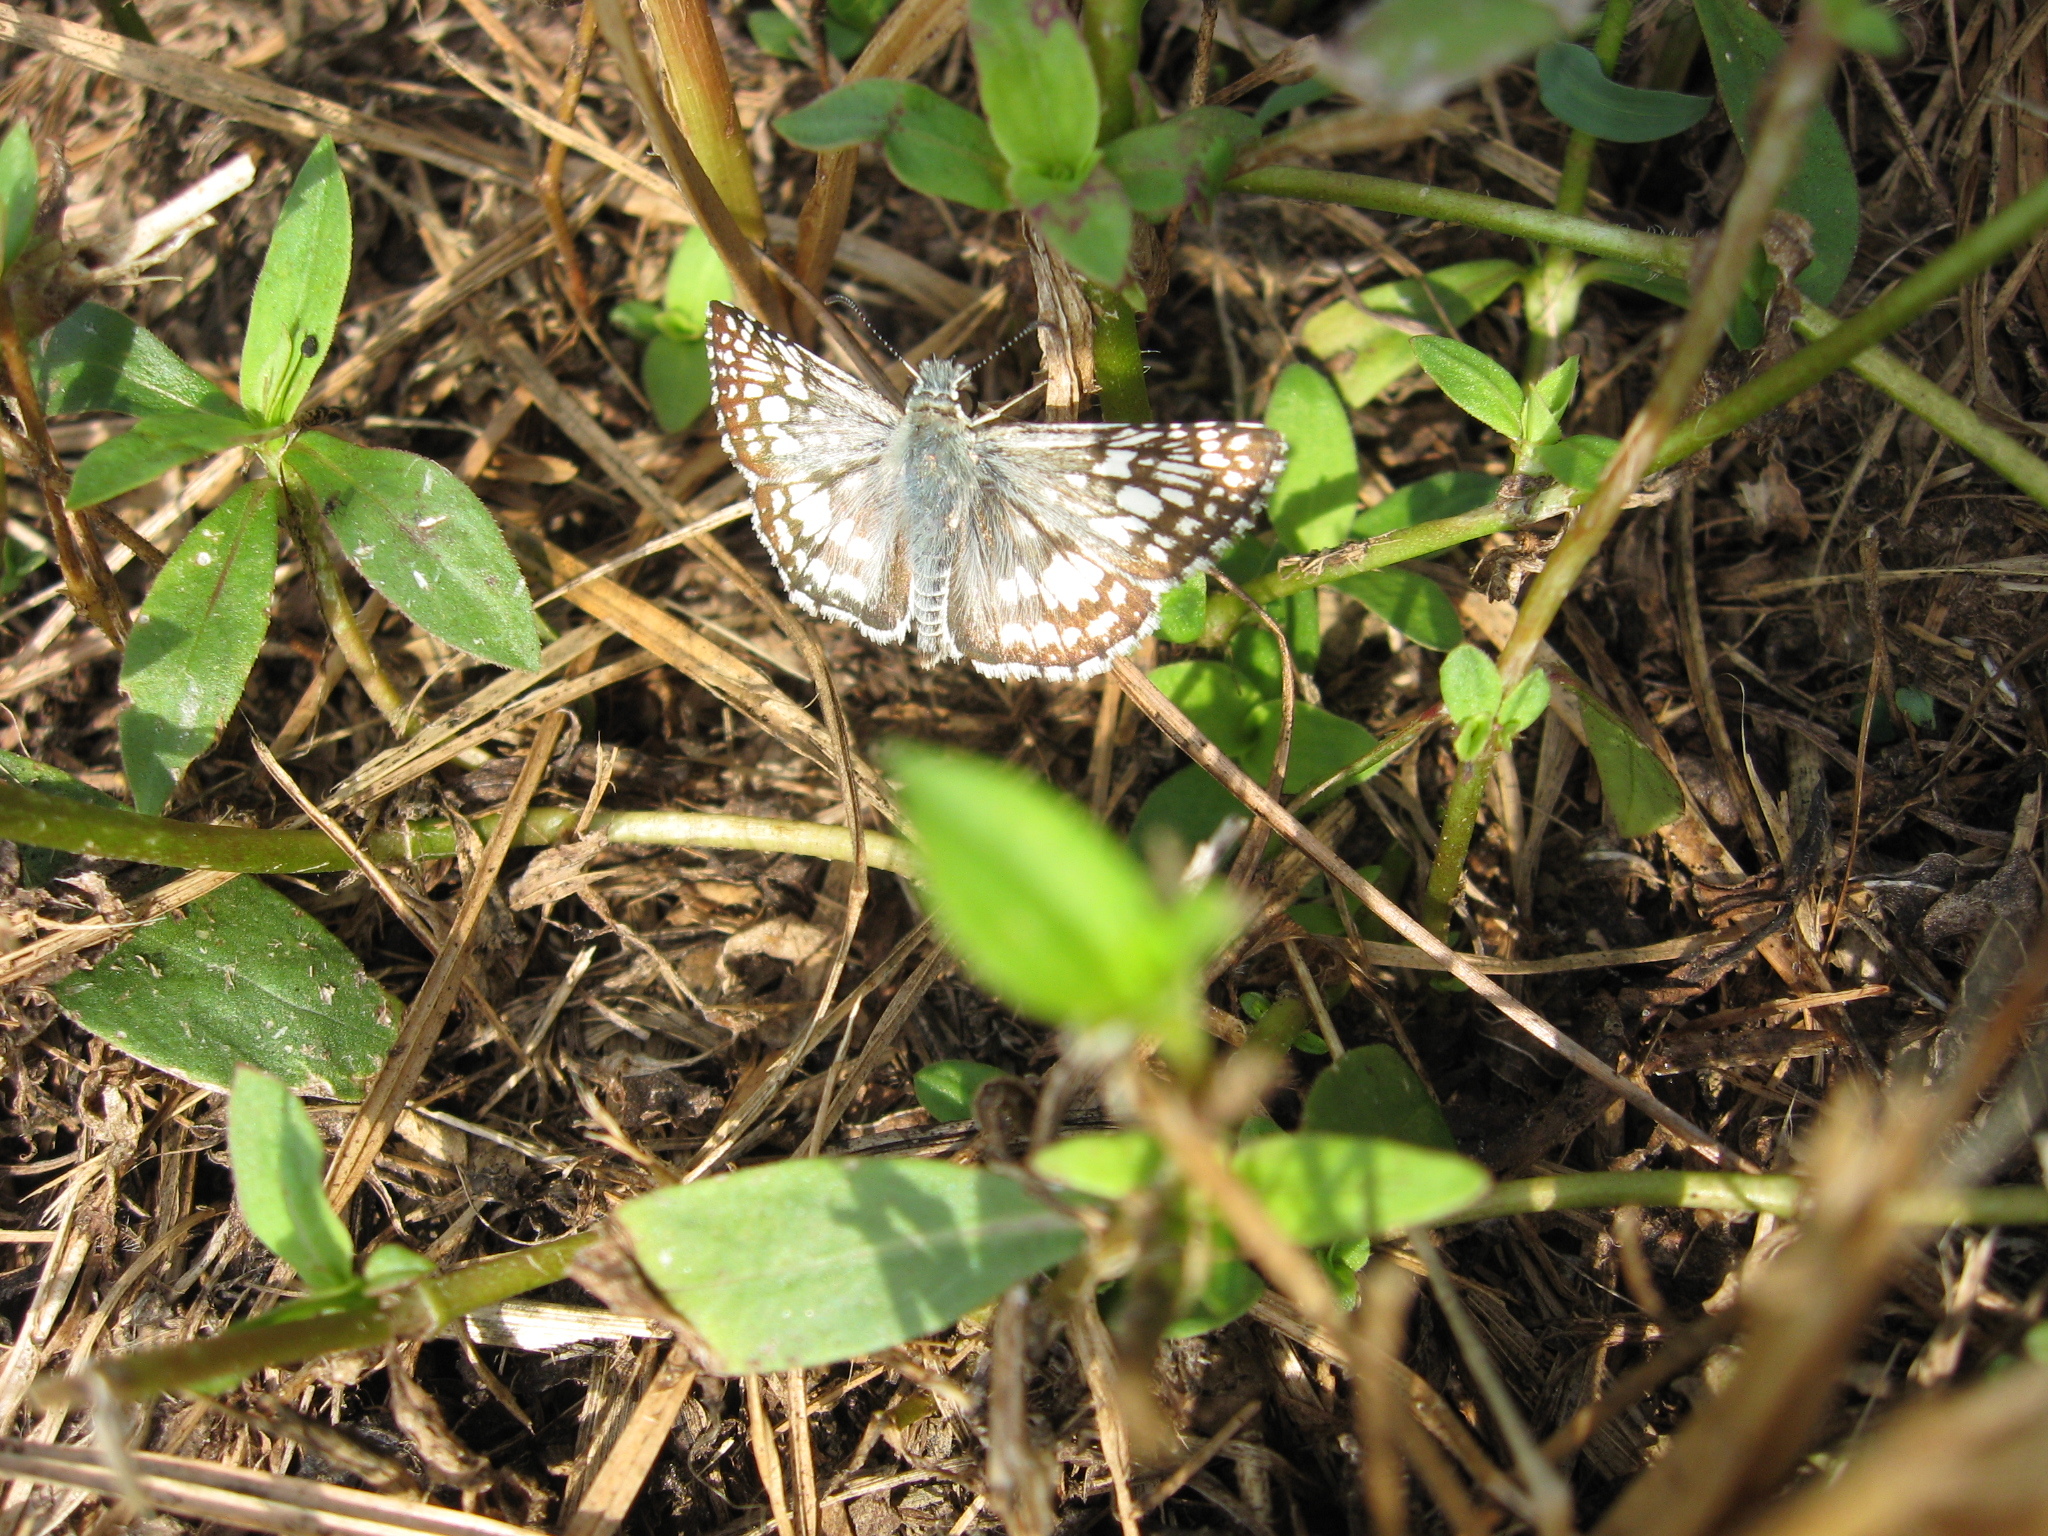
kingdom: Animalia
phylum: Arthropoda
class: Insecta
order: Lepidoptera
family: Hesperiidae
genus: Burnsius
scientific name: Burnsius communis
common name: Common checkered-skipper
